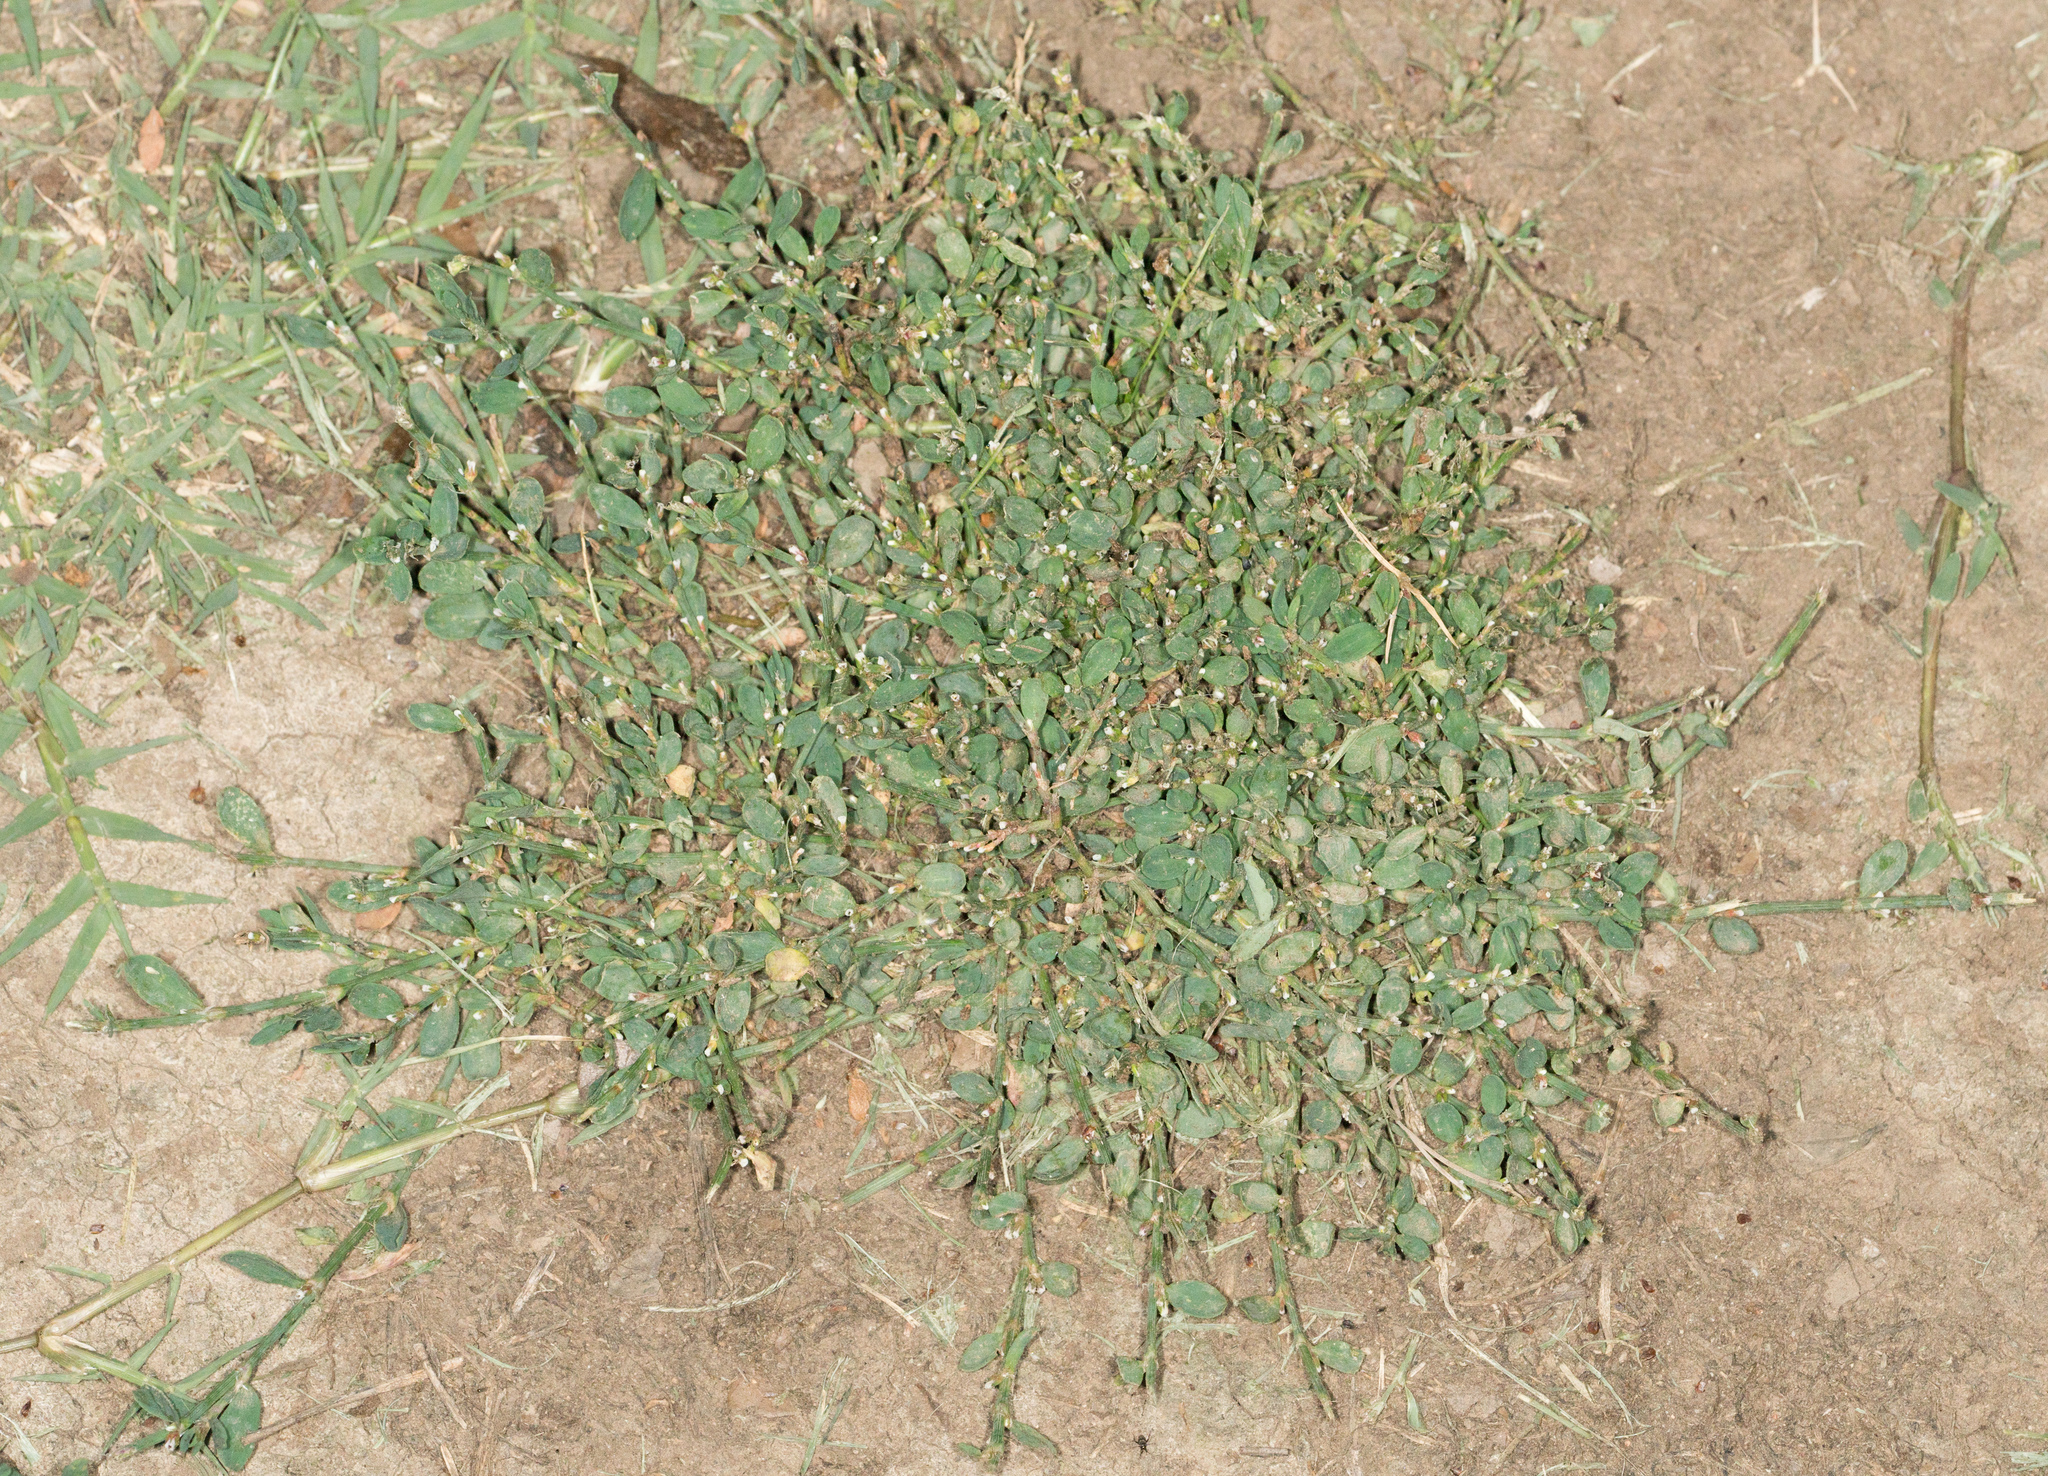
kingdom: Plantae
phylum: Tracheophyta
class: Magnoliopsida
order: Caryophyllales
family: Polygonaceae
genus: Polygonum
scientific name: Polygonum aviculare
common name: Prostrate knotweed
